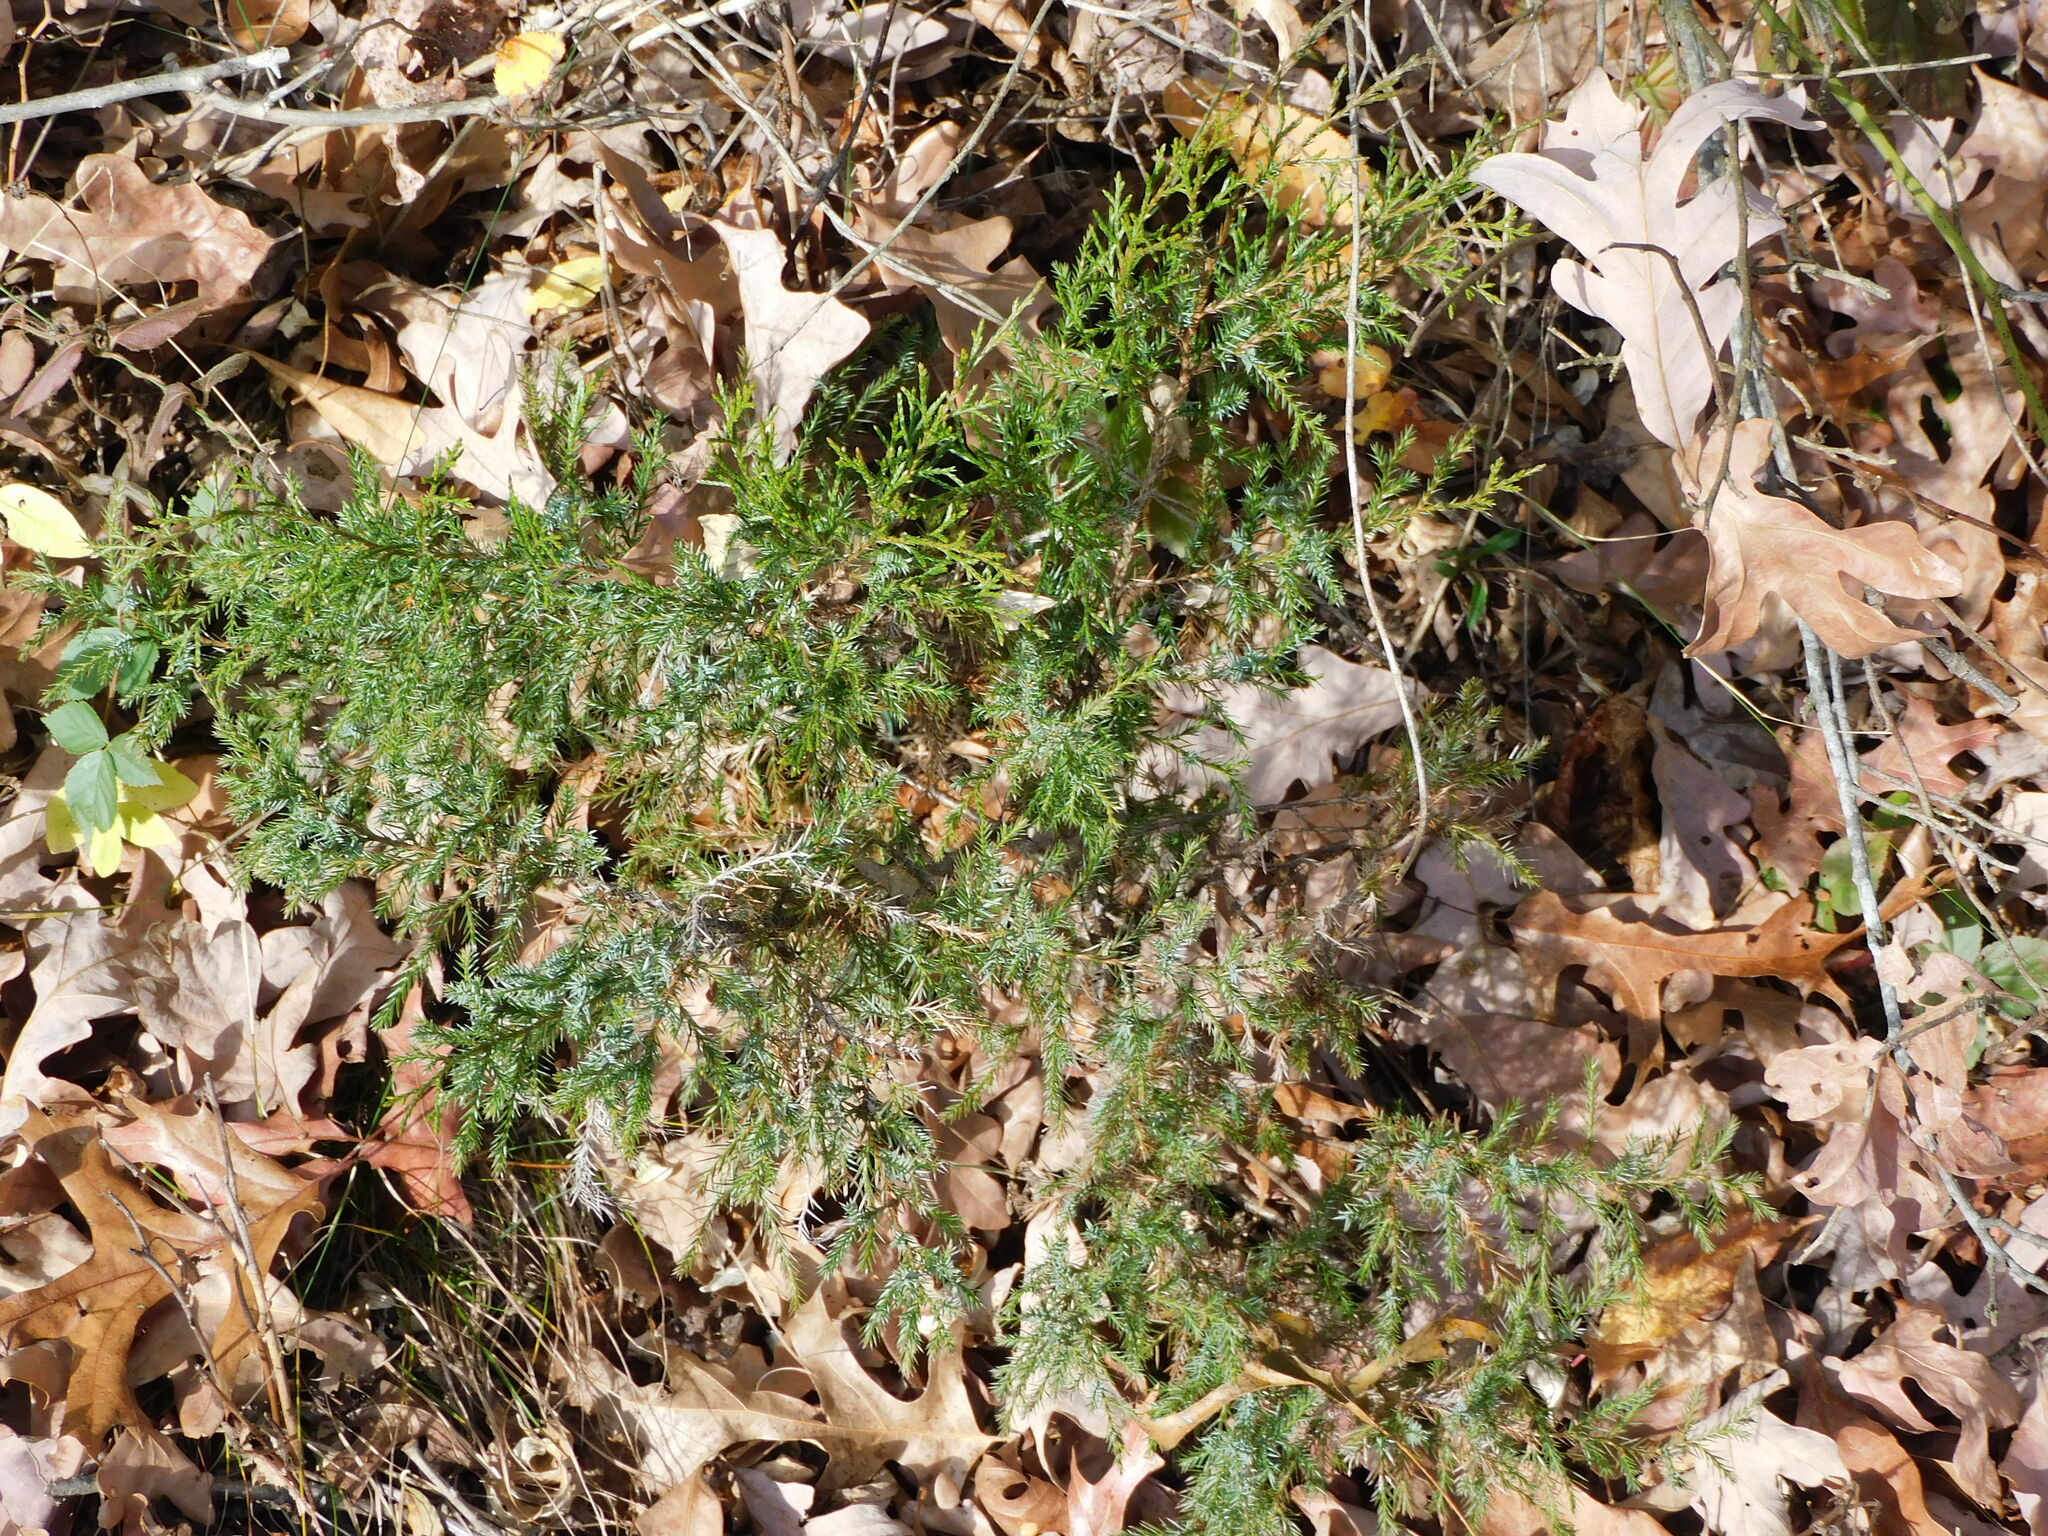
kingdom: Plantae
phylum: Tracheophyta
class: Pinopsida
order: Pinales
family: Cupressaceae
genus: Juniperus
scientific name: Juniperus virginiana
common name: Red juniper
